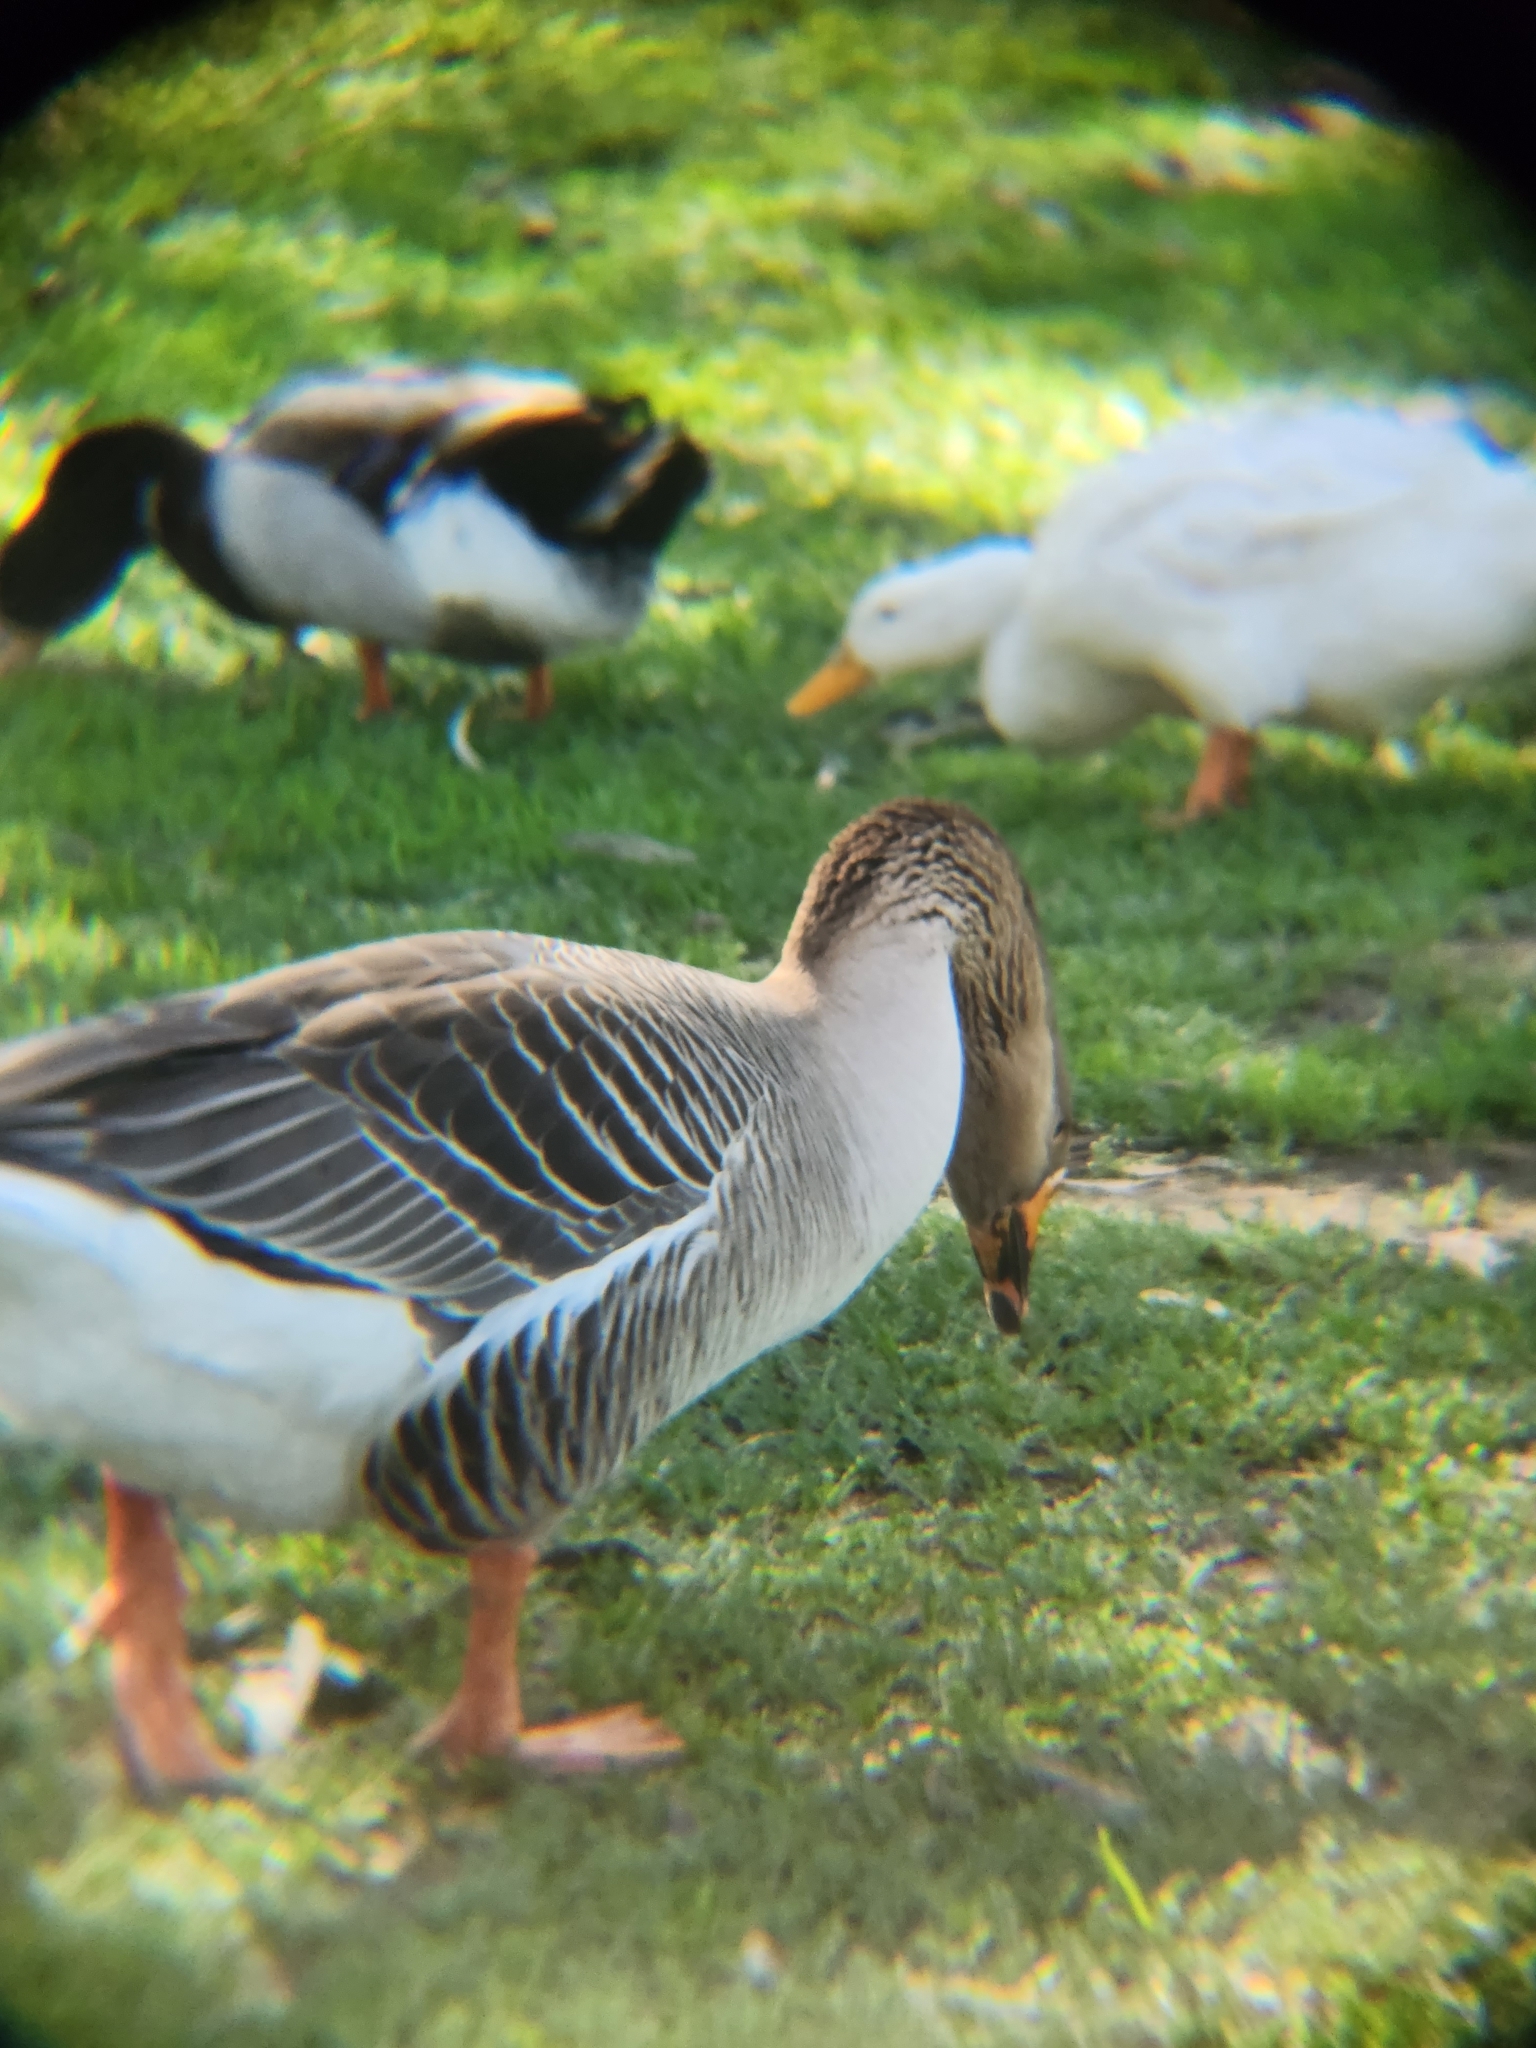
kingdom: Animalia
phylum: Chordata
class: Aves
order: Anseriformes
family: Anatidae
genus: Anser
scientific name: Anser
